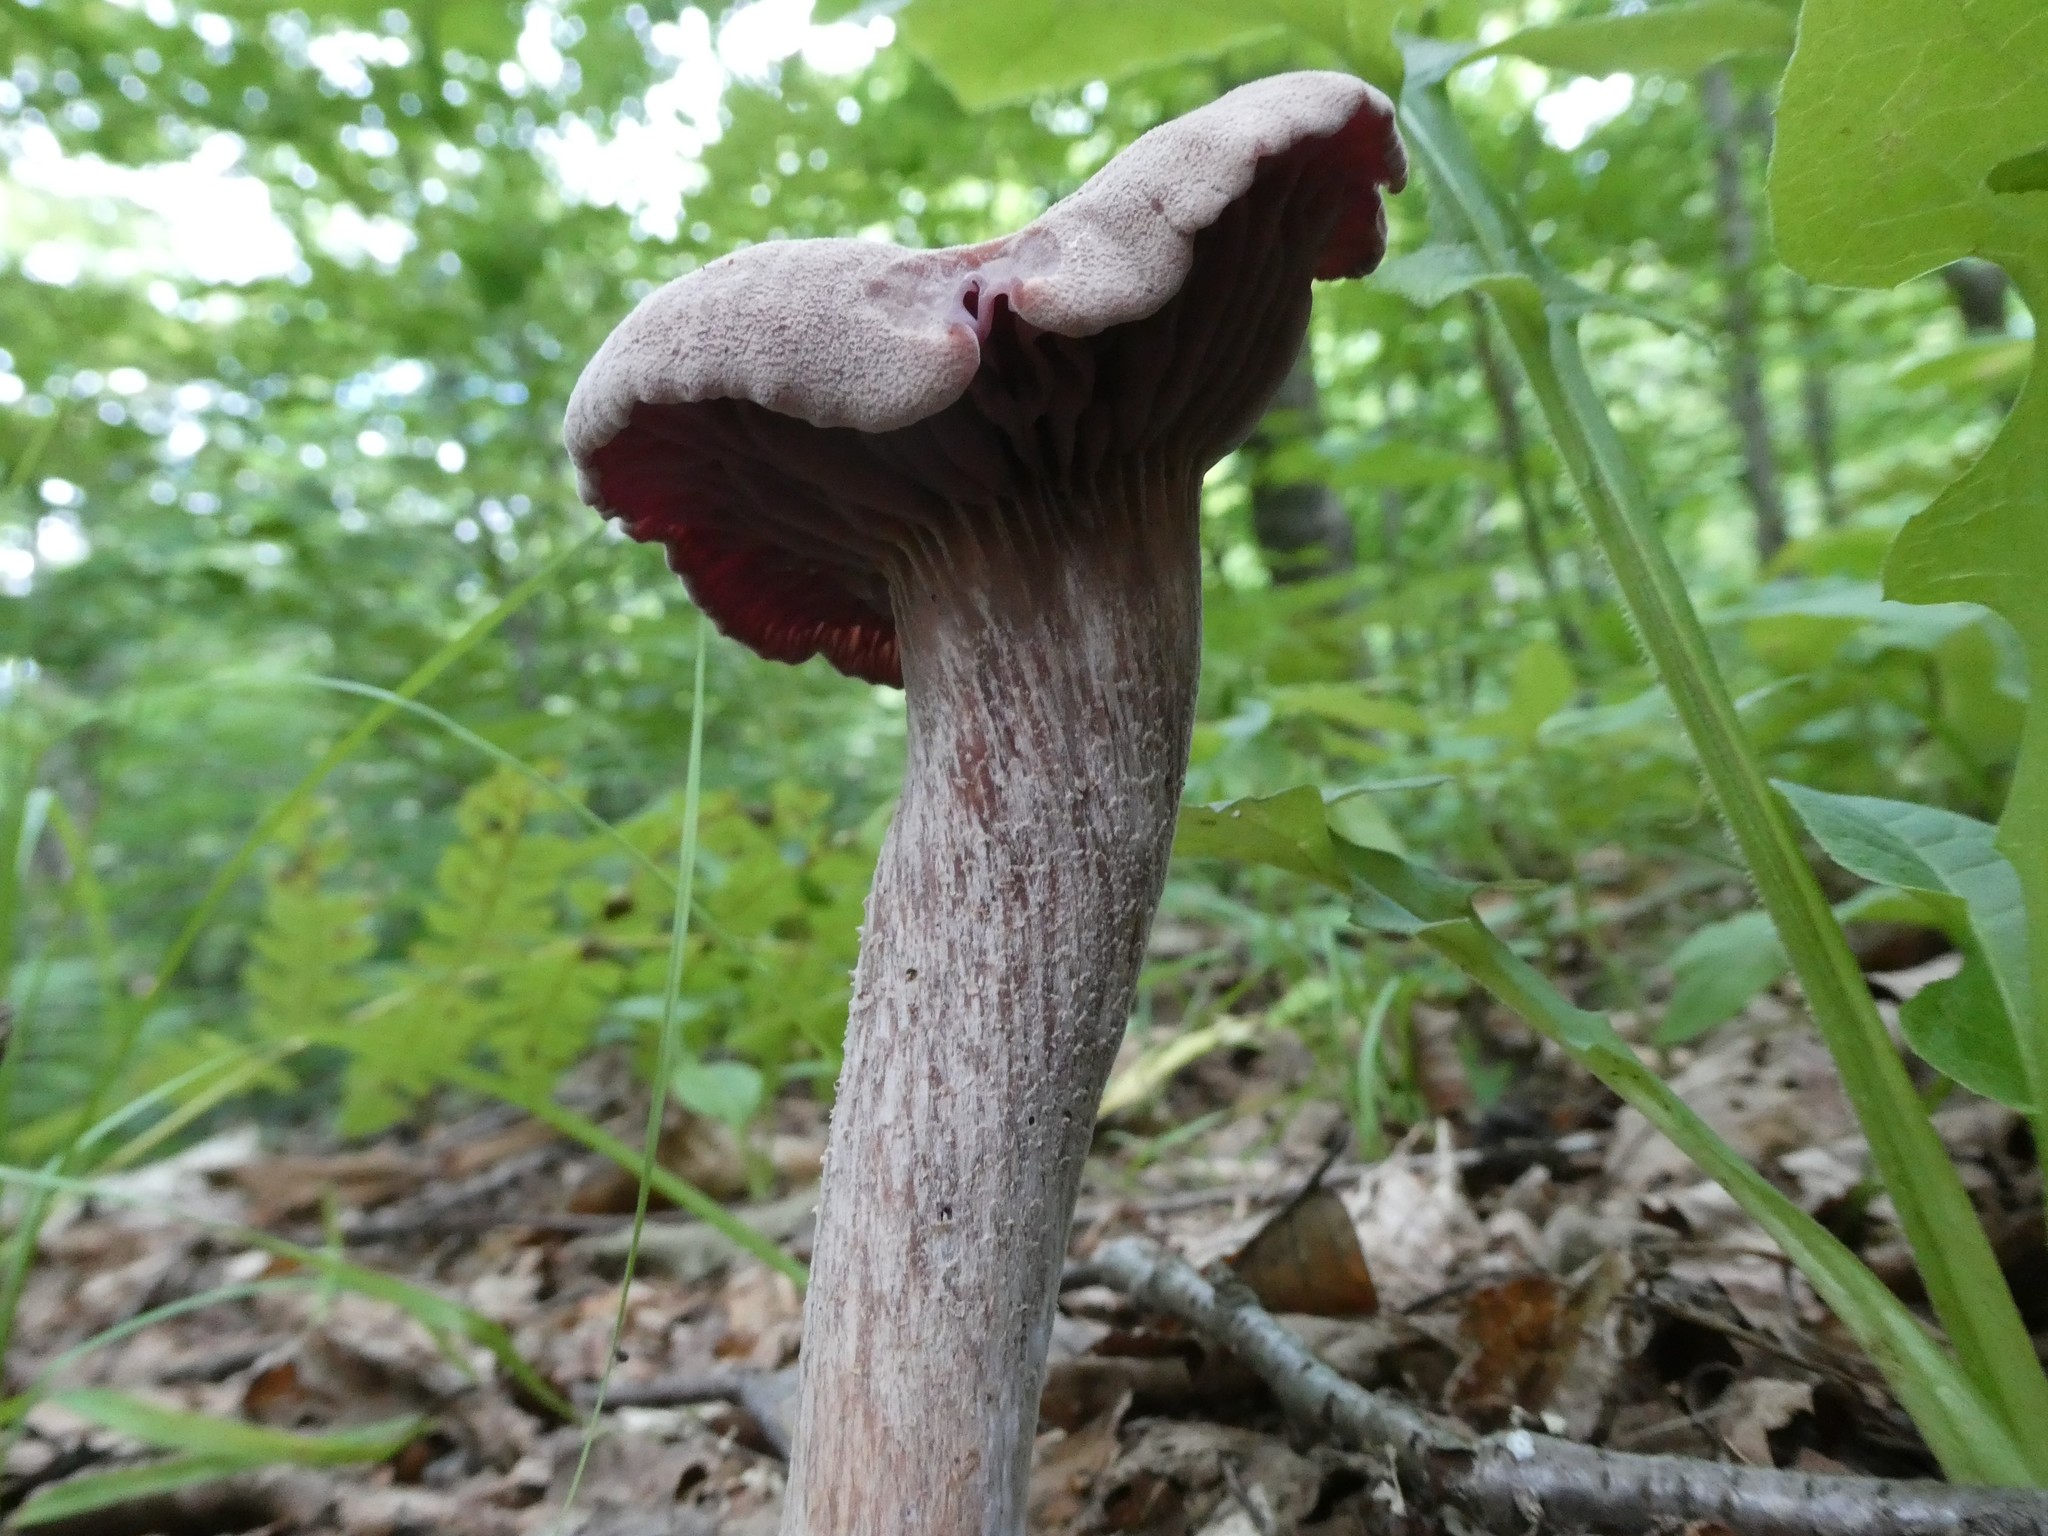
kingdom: Fungi
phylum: Basidiomycota
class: Agaricomycetes
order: Agaricales
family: Hydnangiaceae
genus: Laccaria
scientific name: Laccaria ochropurpurea
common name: Purple laccaria
